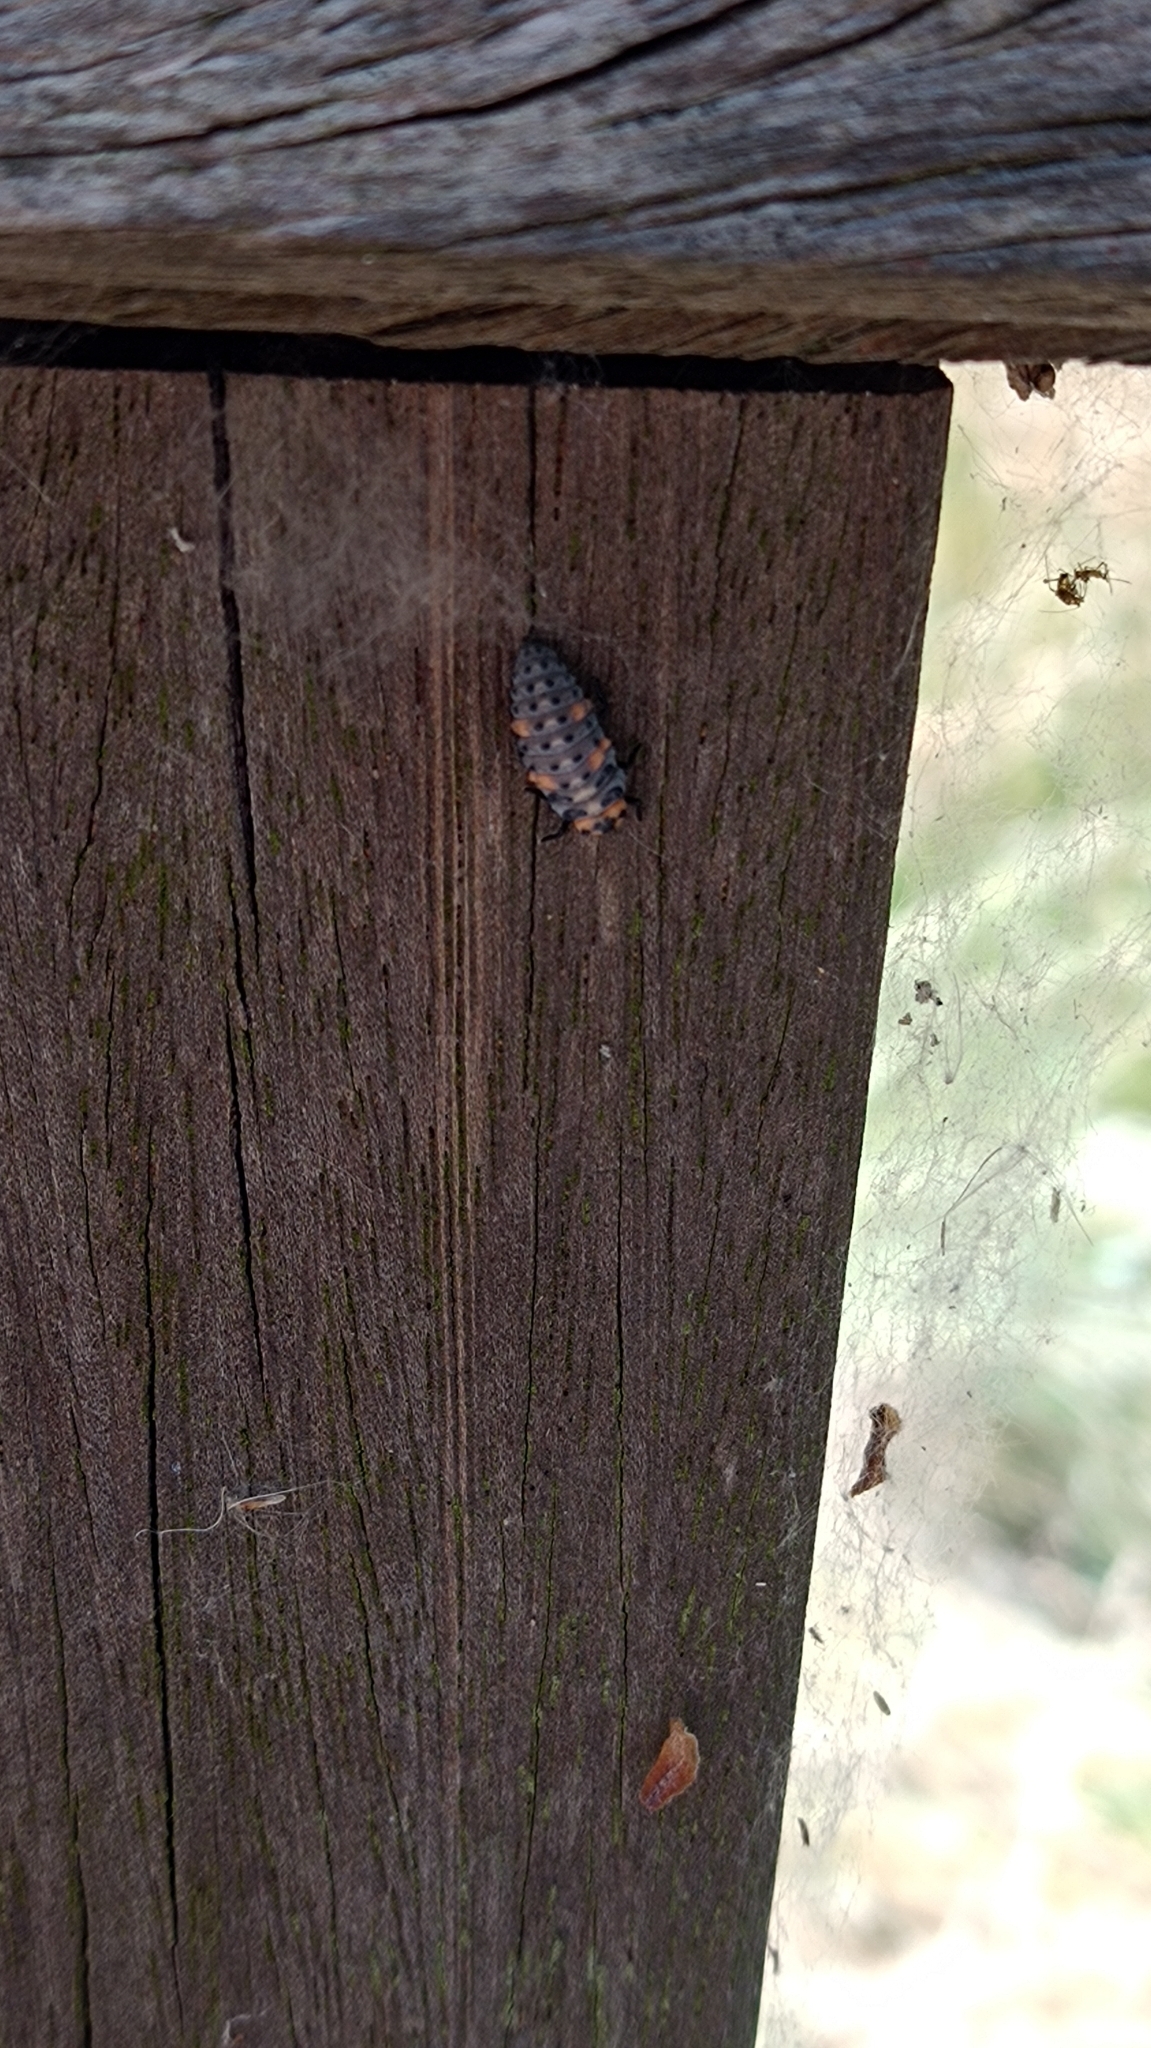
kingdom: Animalia
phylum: Arthropoda
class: Insecta
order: Coleoptera
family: Coccinellidae
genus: Coccinella
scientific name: Coccinella septempunctata
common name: Sevenspotted lady beetle
